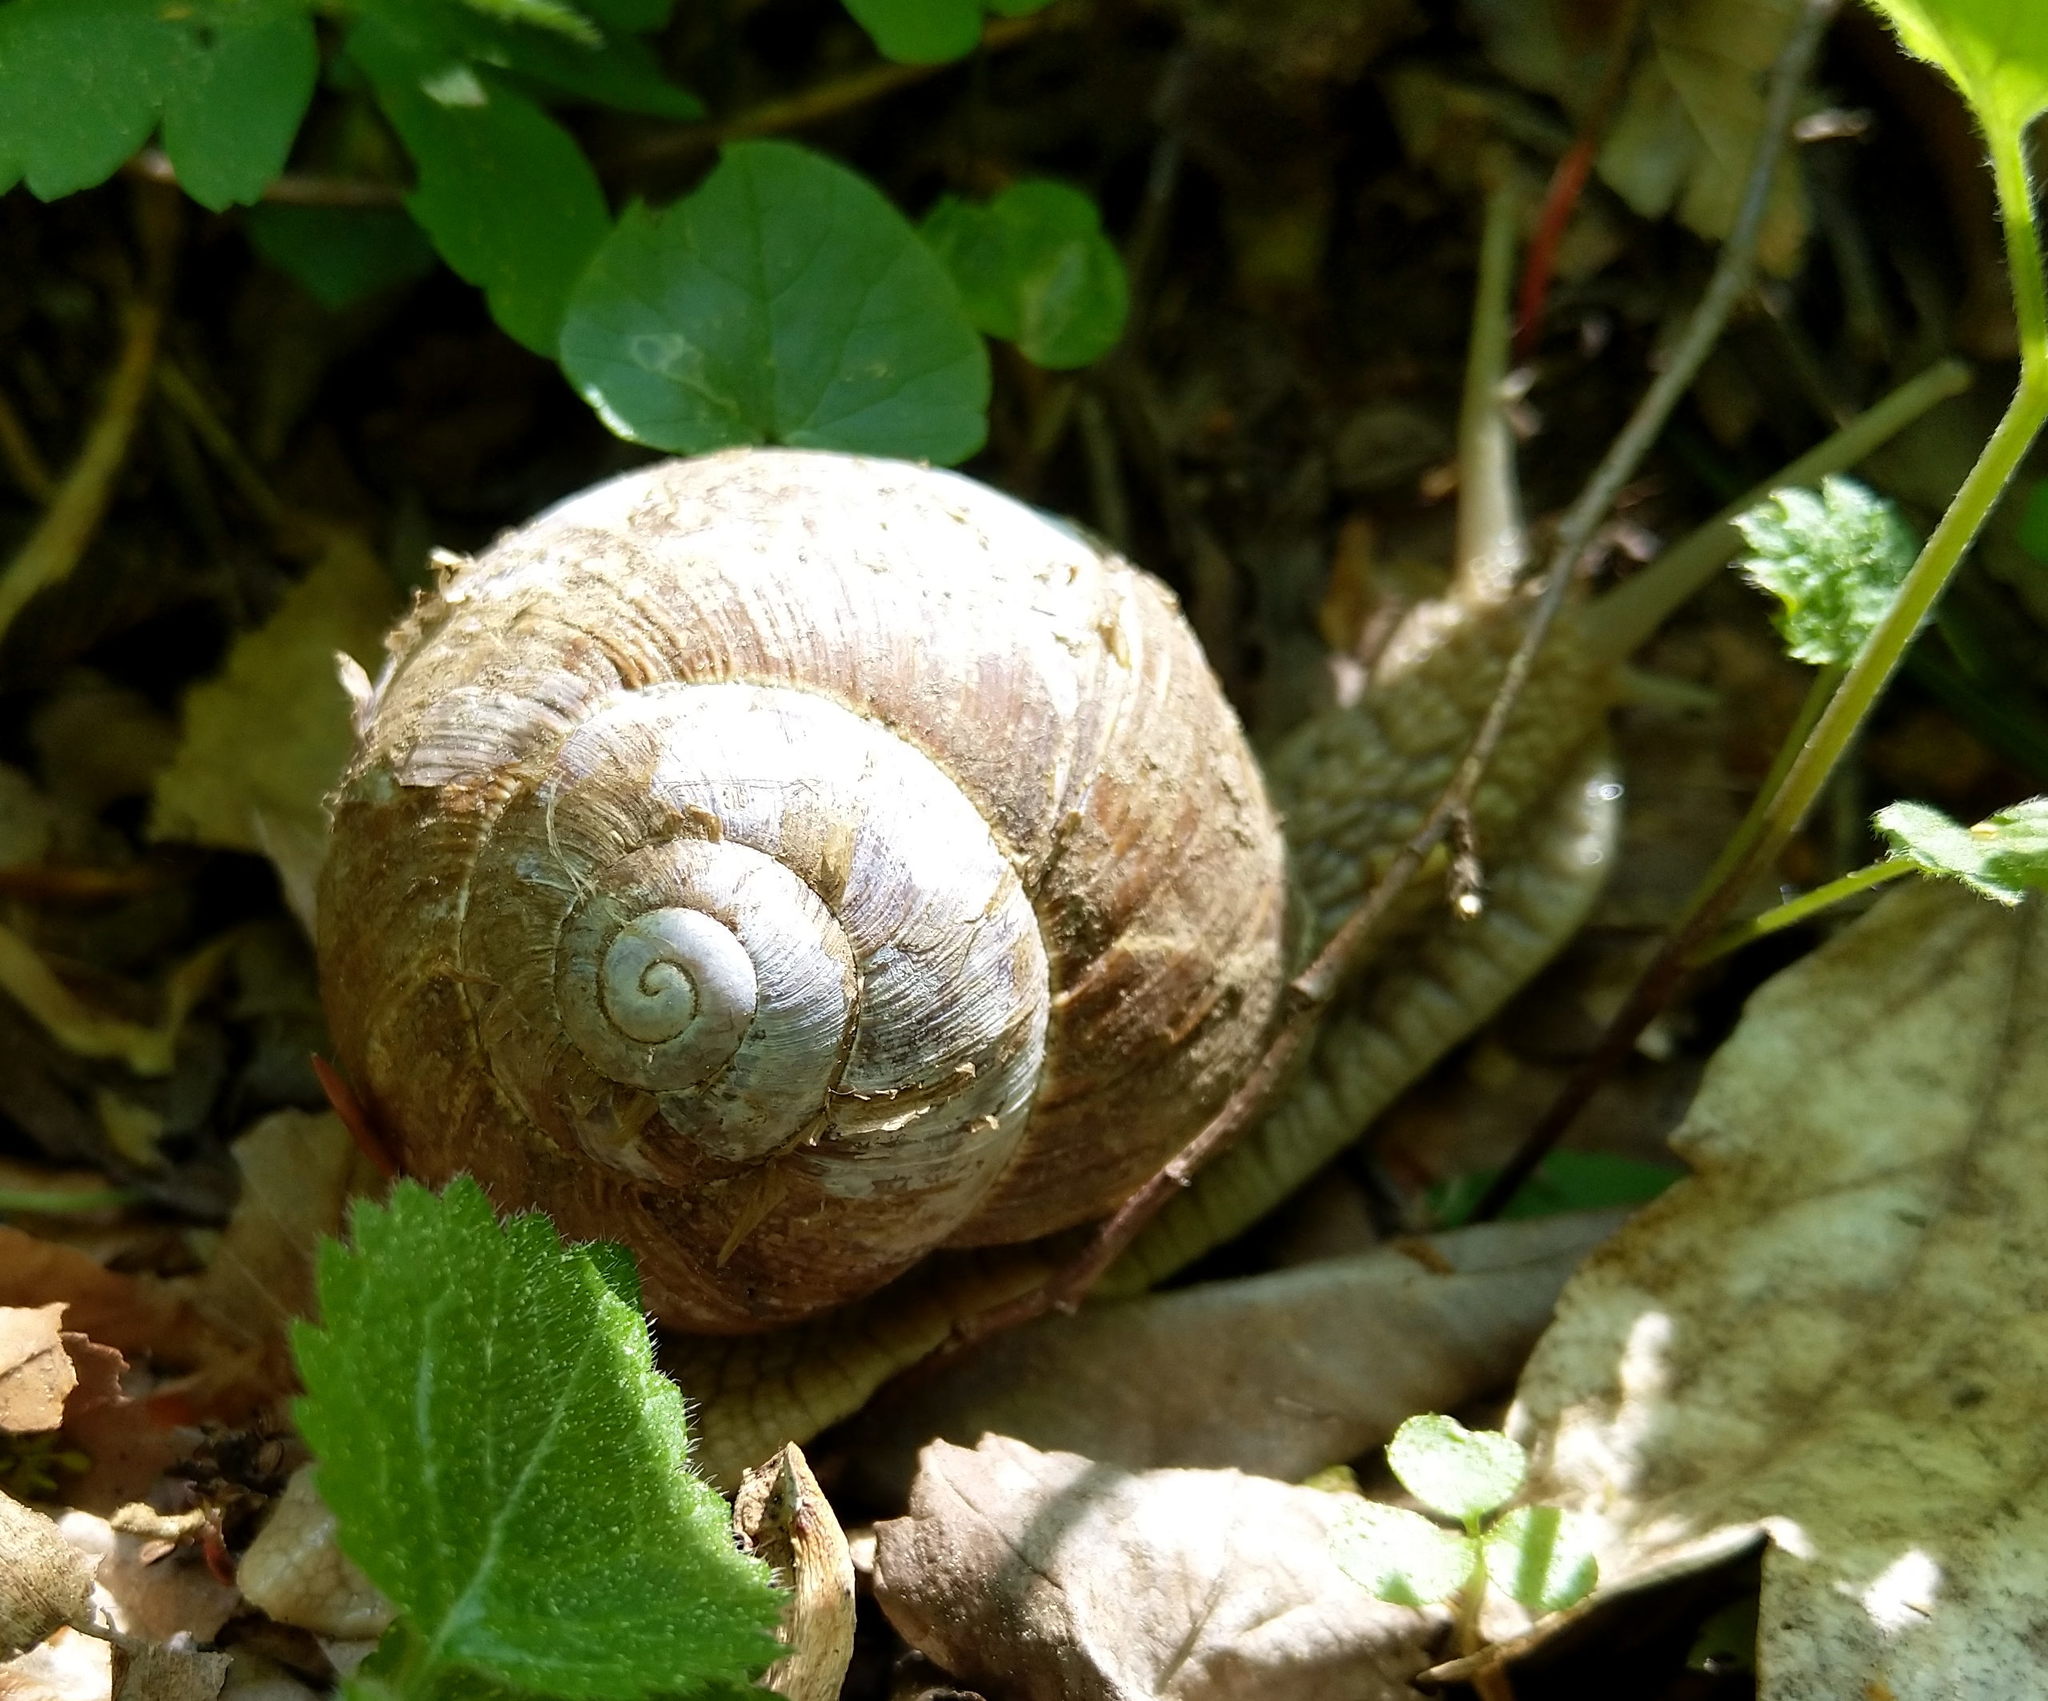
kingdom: Animalia
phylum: Mollusca
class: Gastropoda
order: Stylommatophora
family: Helicidae
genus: Helix
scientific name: Helix pomatia
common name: Roman snail
